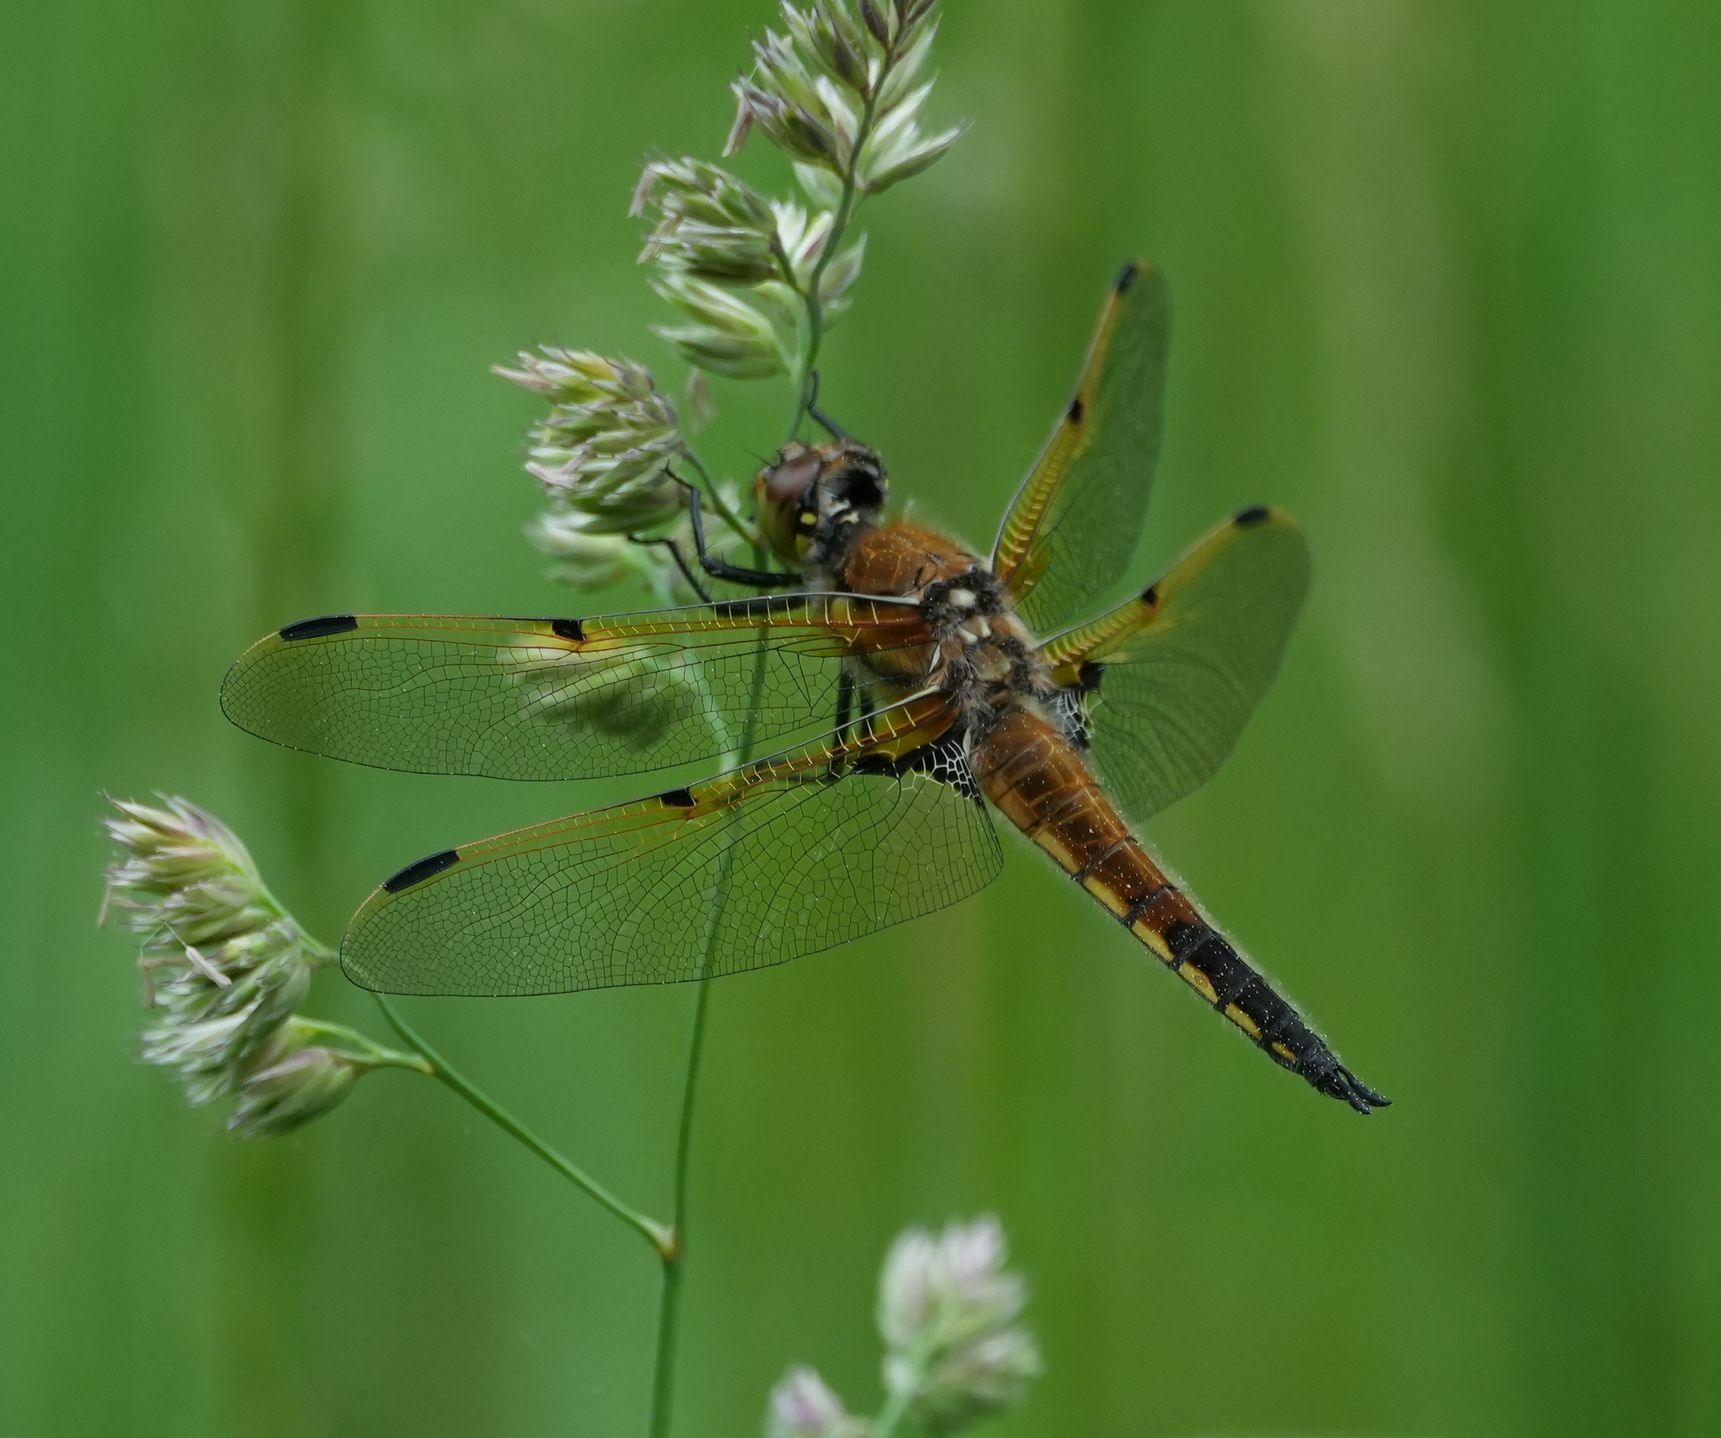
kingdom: Animalia
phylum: Arthropoda
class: Insecta
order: Odonata
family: Libellulidae
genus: Libellula
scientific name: Libellula quadrimaculata
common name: Four-spotted chaser
